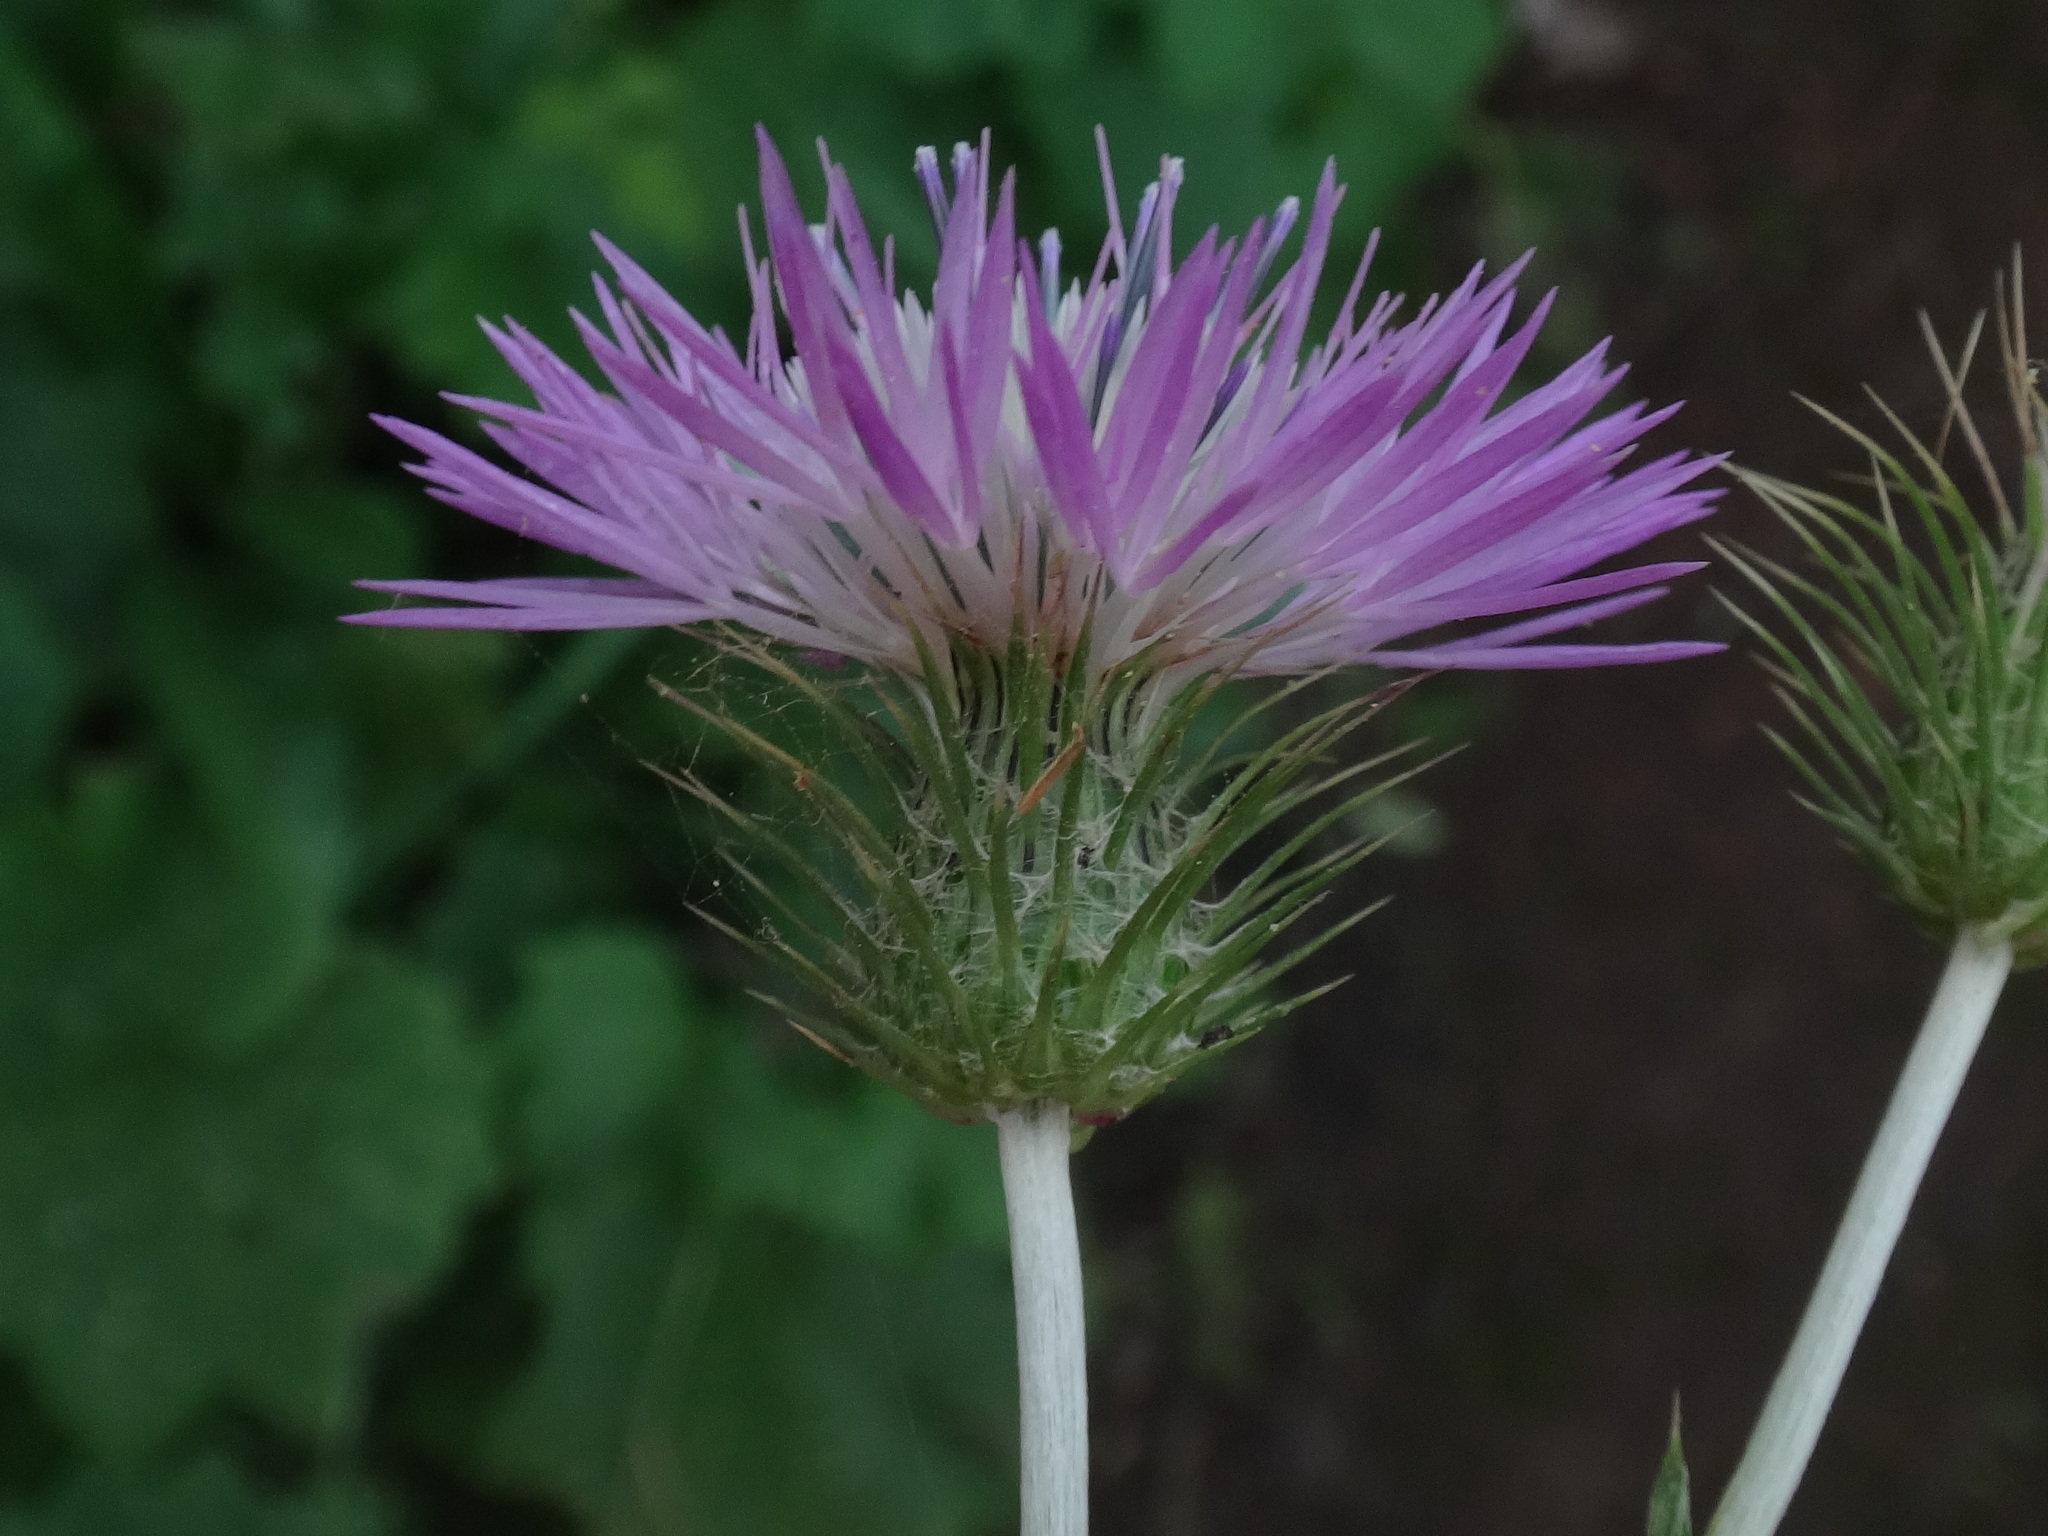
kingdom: Plantae
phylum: Tracheophyta
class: Magnoliopsida
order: Asterales
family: Asteraceae
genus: Galactites
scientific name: Galactites tomentosa
